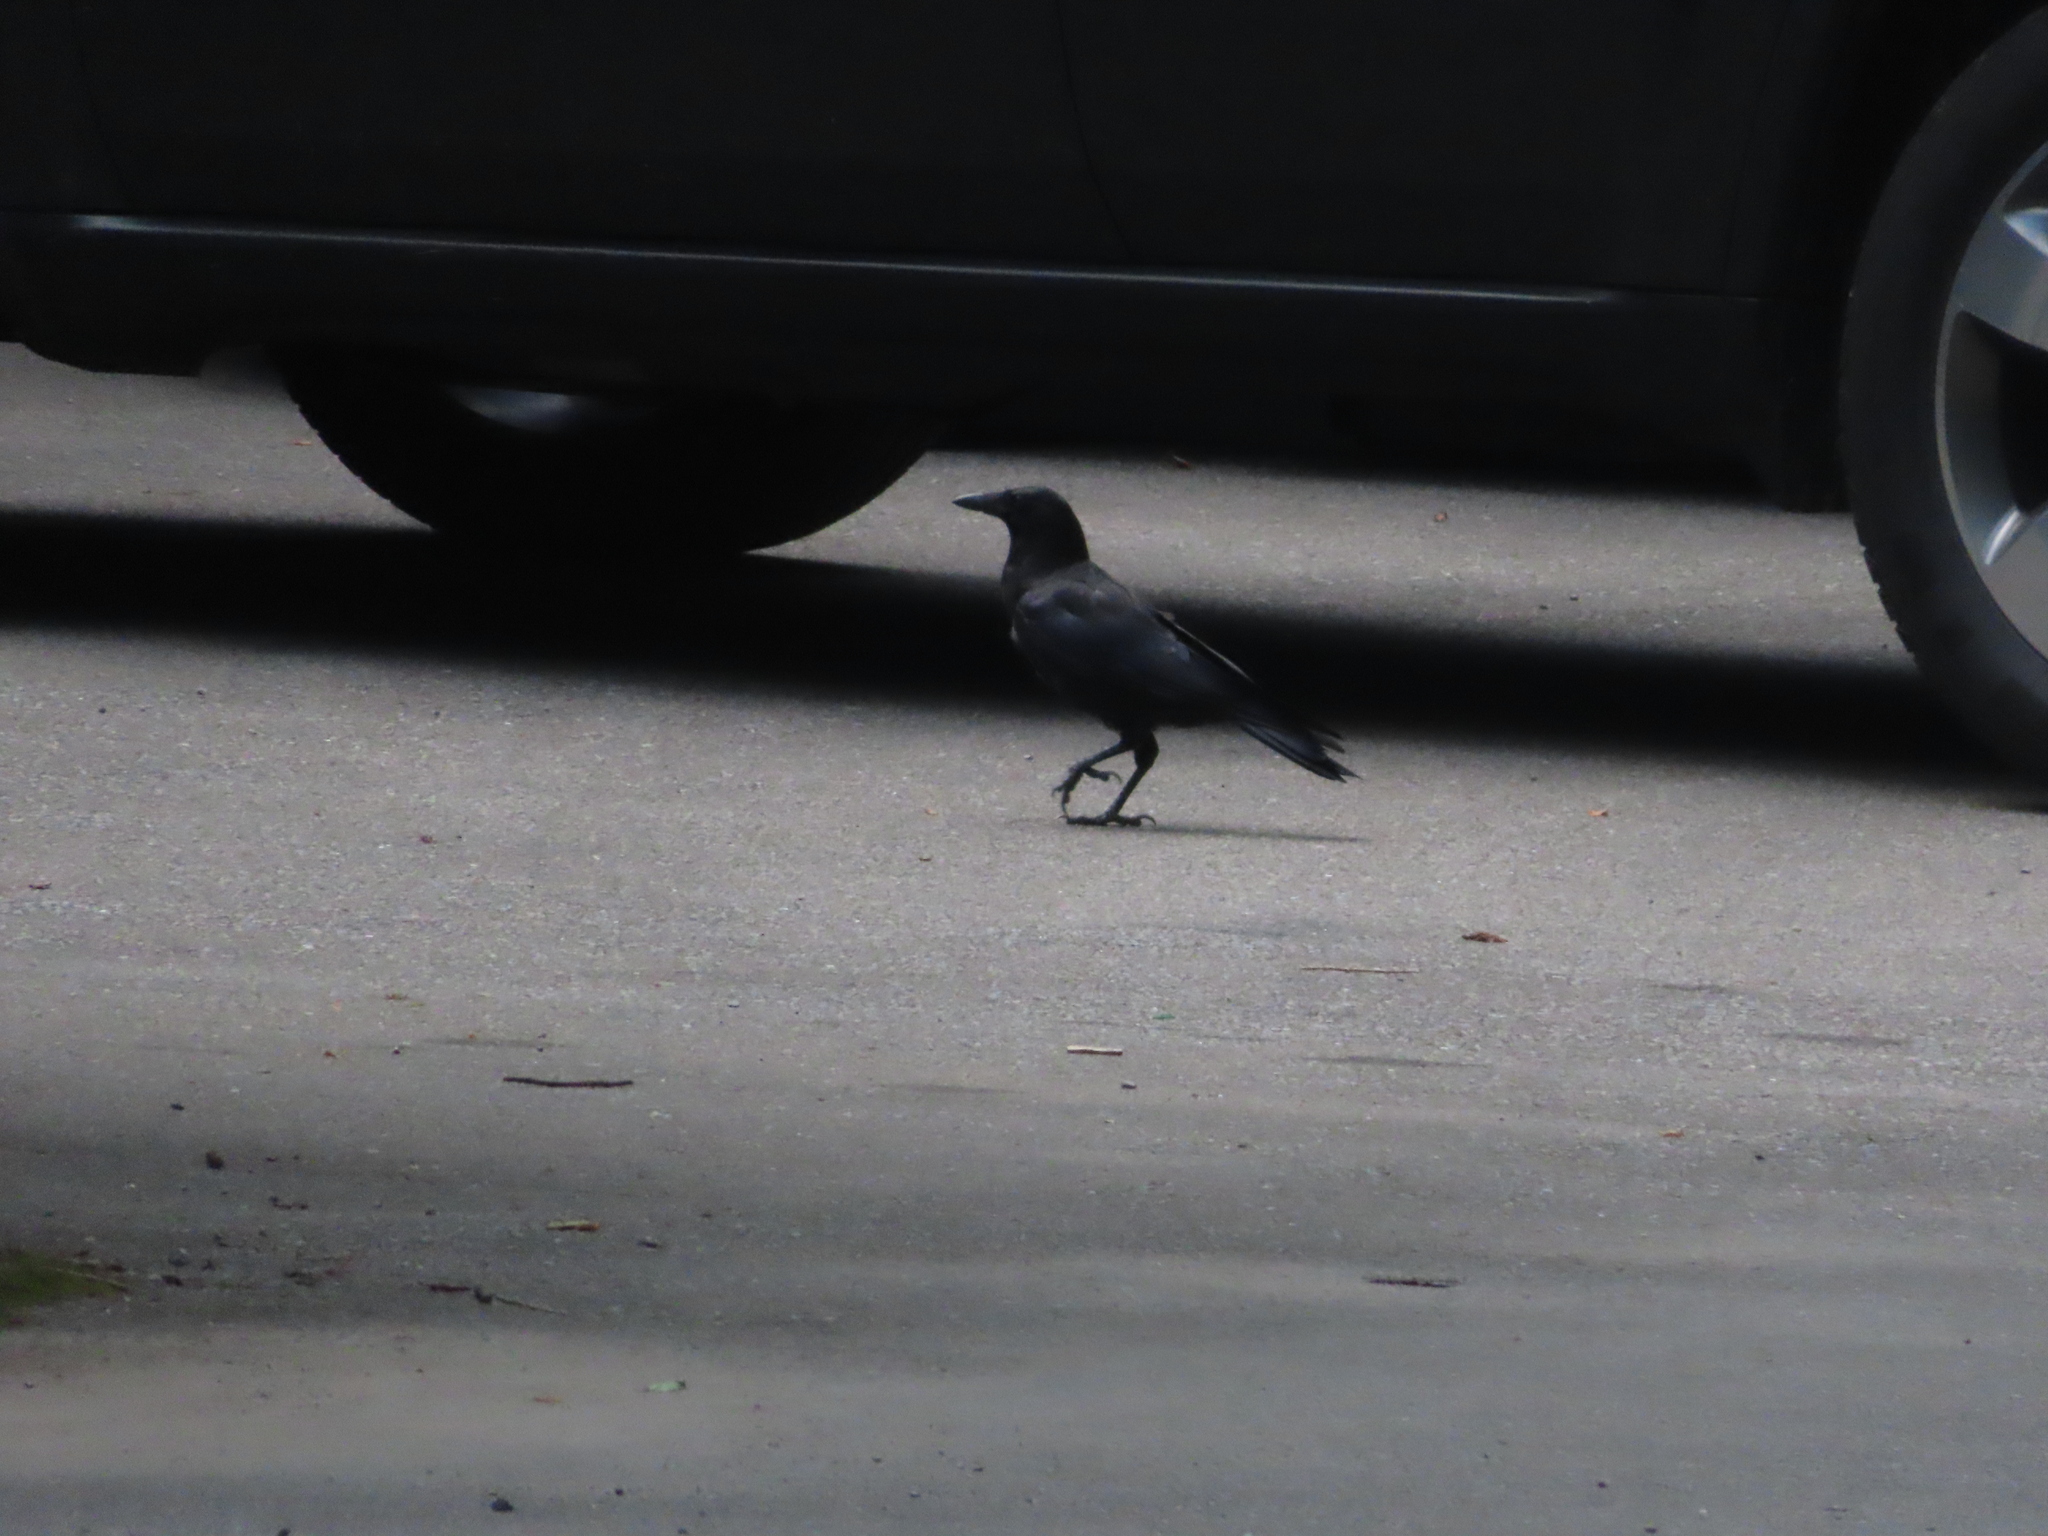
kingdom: Animalia
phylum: Chordata
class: Aves
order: Passeriformes
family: Corvidae
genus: Corvus
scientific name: Corvus brachyrhynchos
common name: American crow
